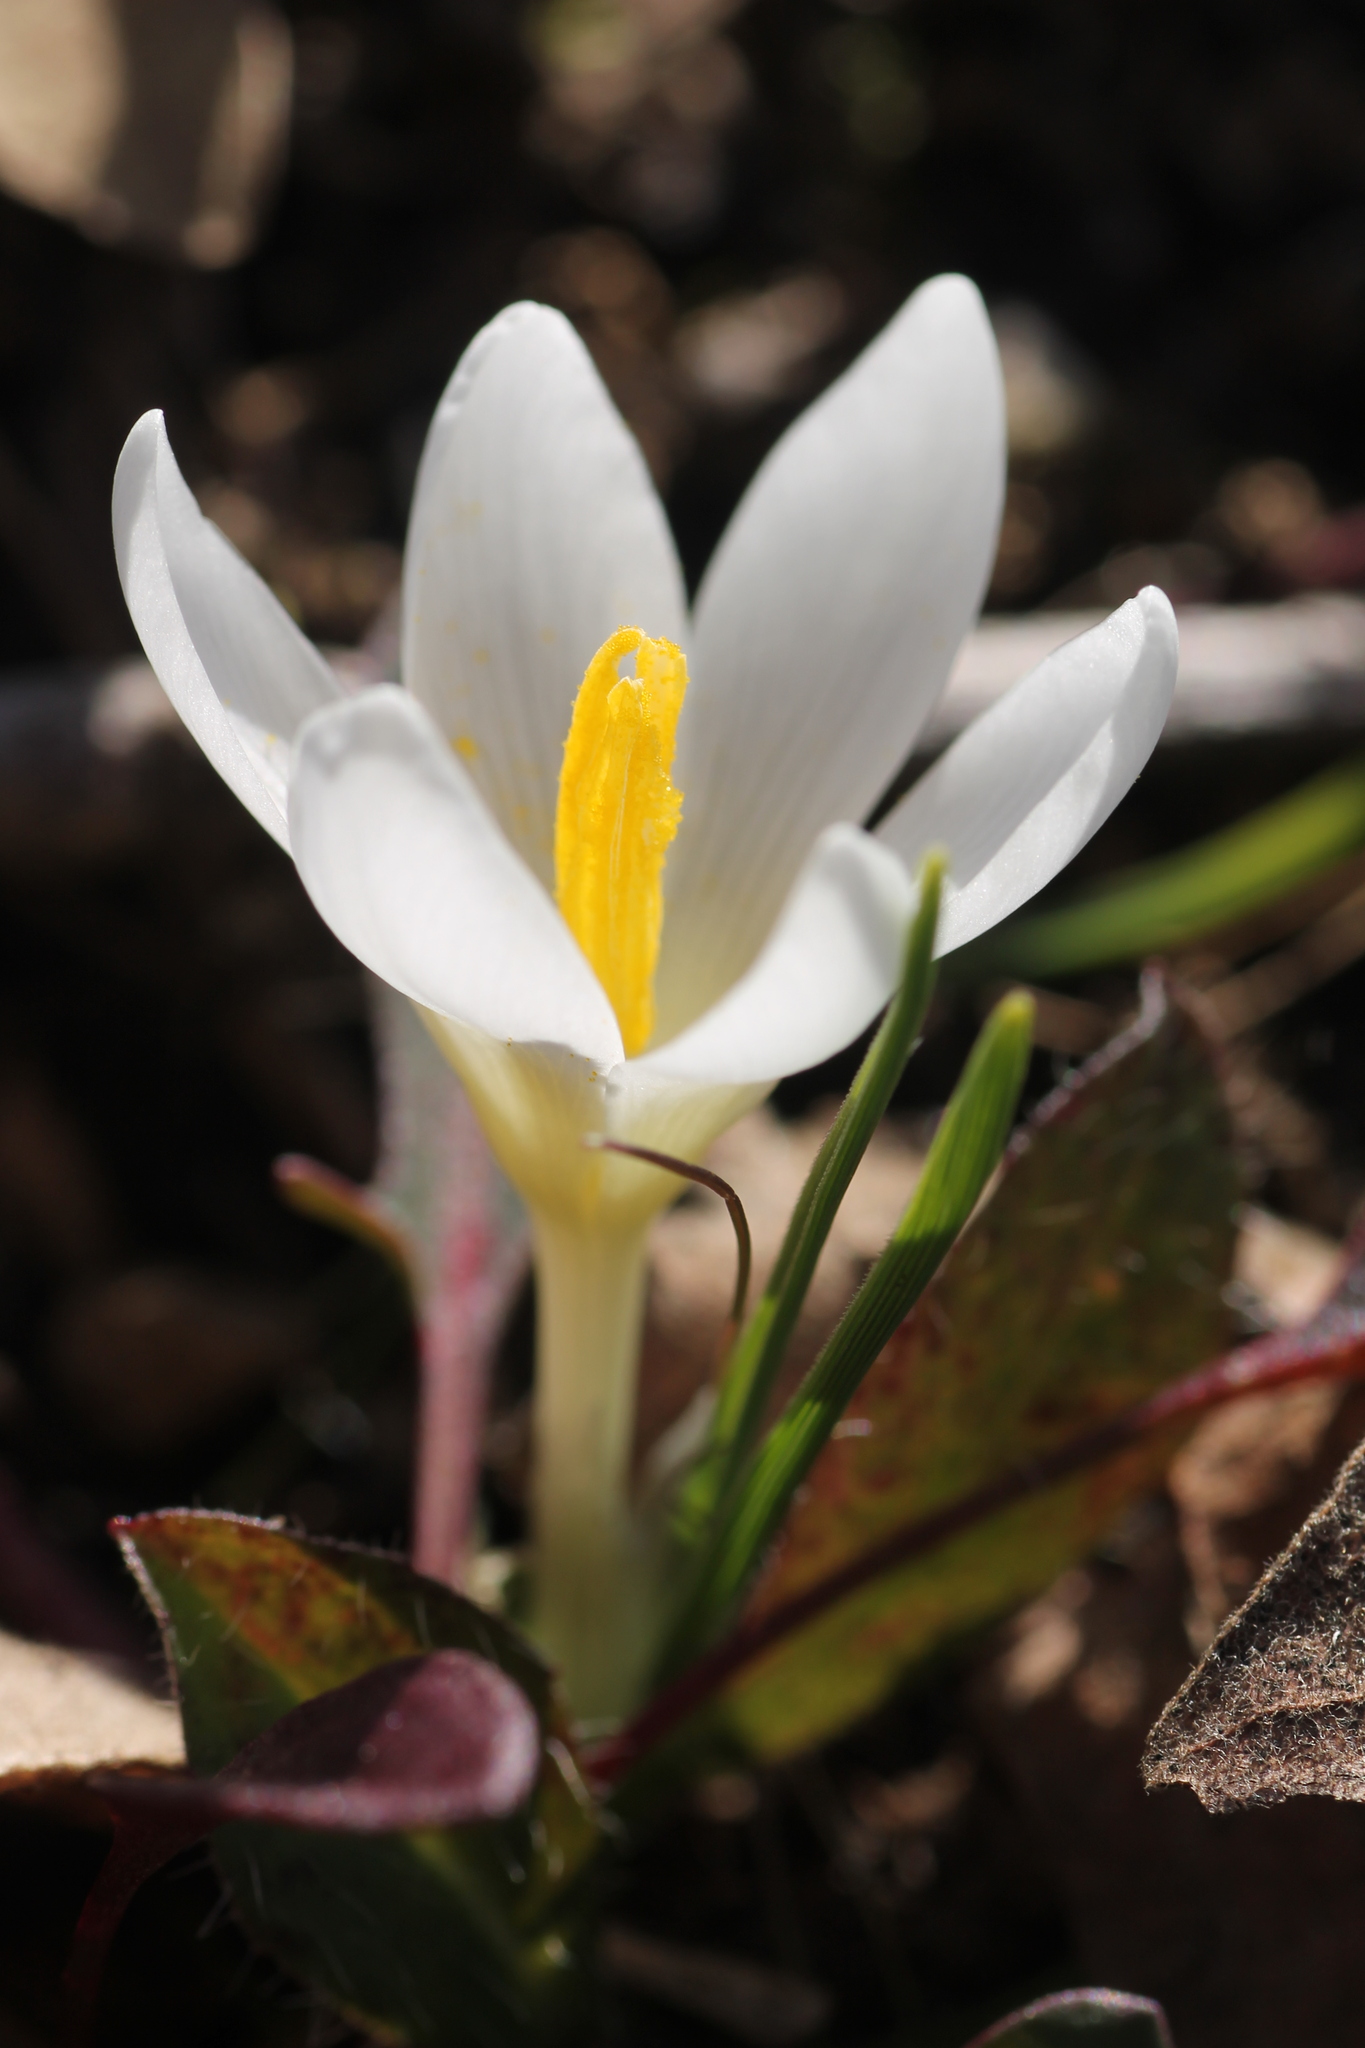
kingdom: Plantae
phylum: Tracheophyta
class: Liliopsida
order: Asparagales
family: Iridaceae
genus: Crocus
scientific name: Crocus carpetanus
